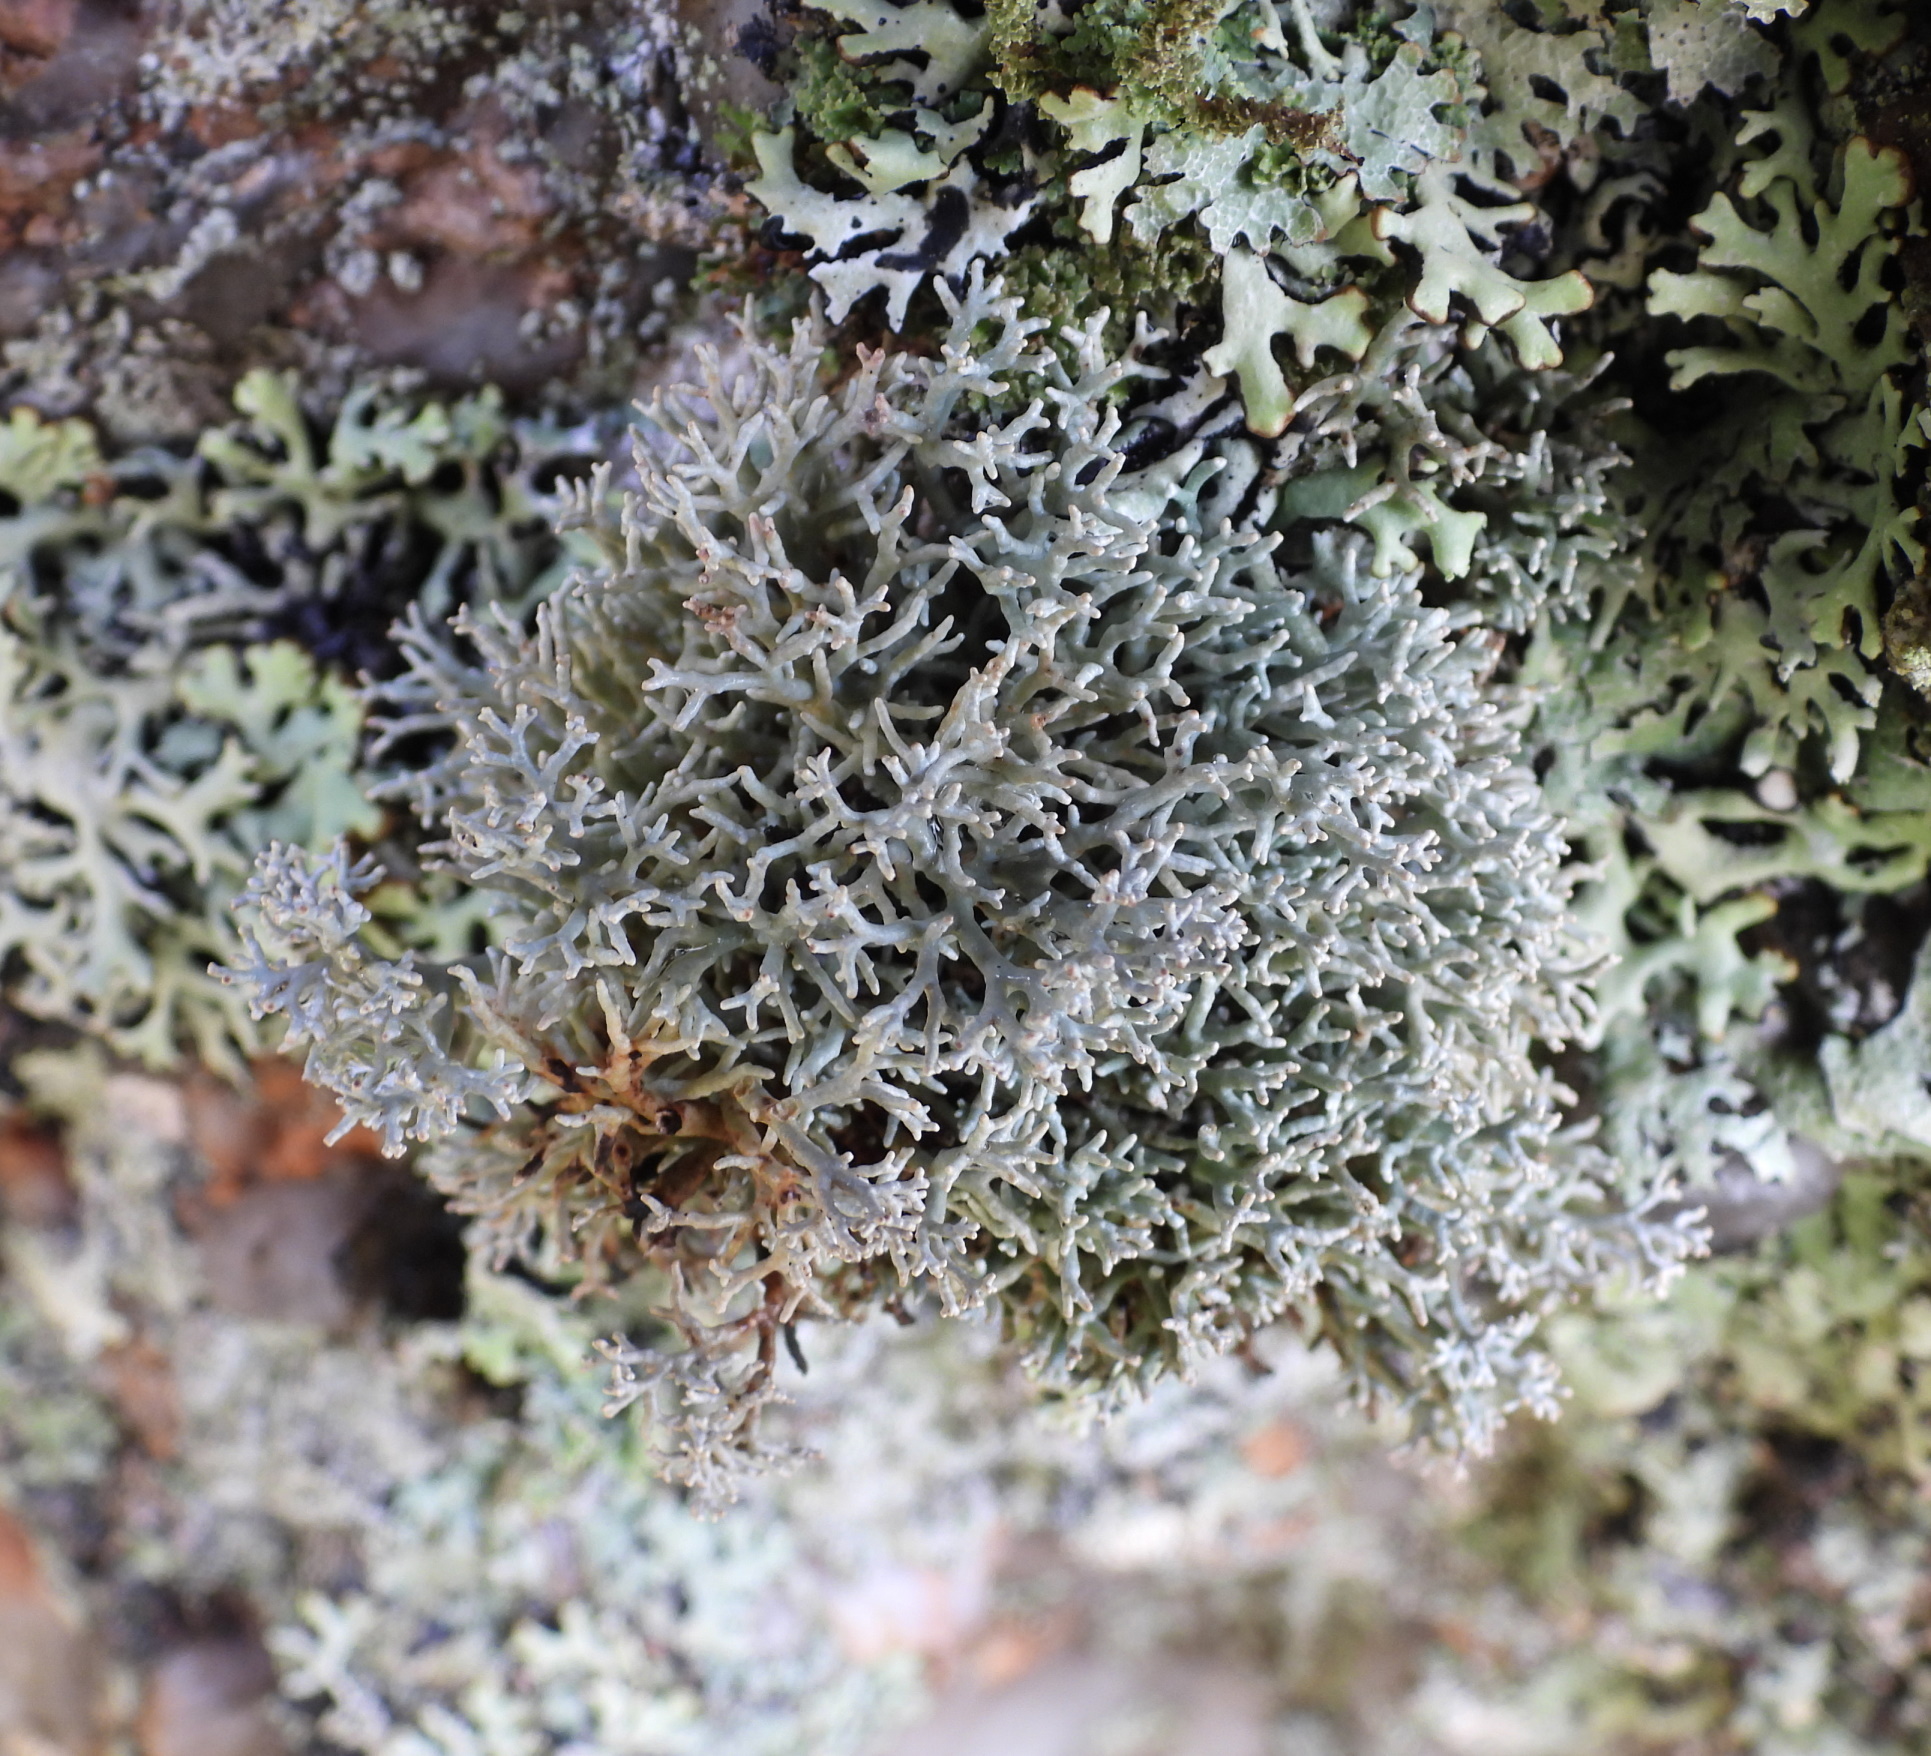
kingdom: Fungi
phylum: Ascomycota
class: Lecanoromycetes
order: Lecanorales
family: Sphaerophoraceae
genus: Sphaerophorus
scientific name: Sphaerophorus fragilis
